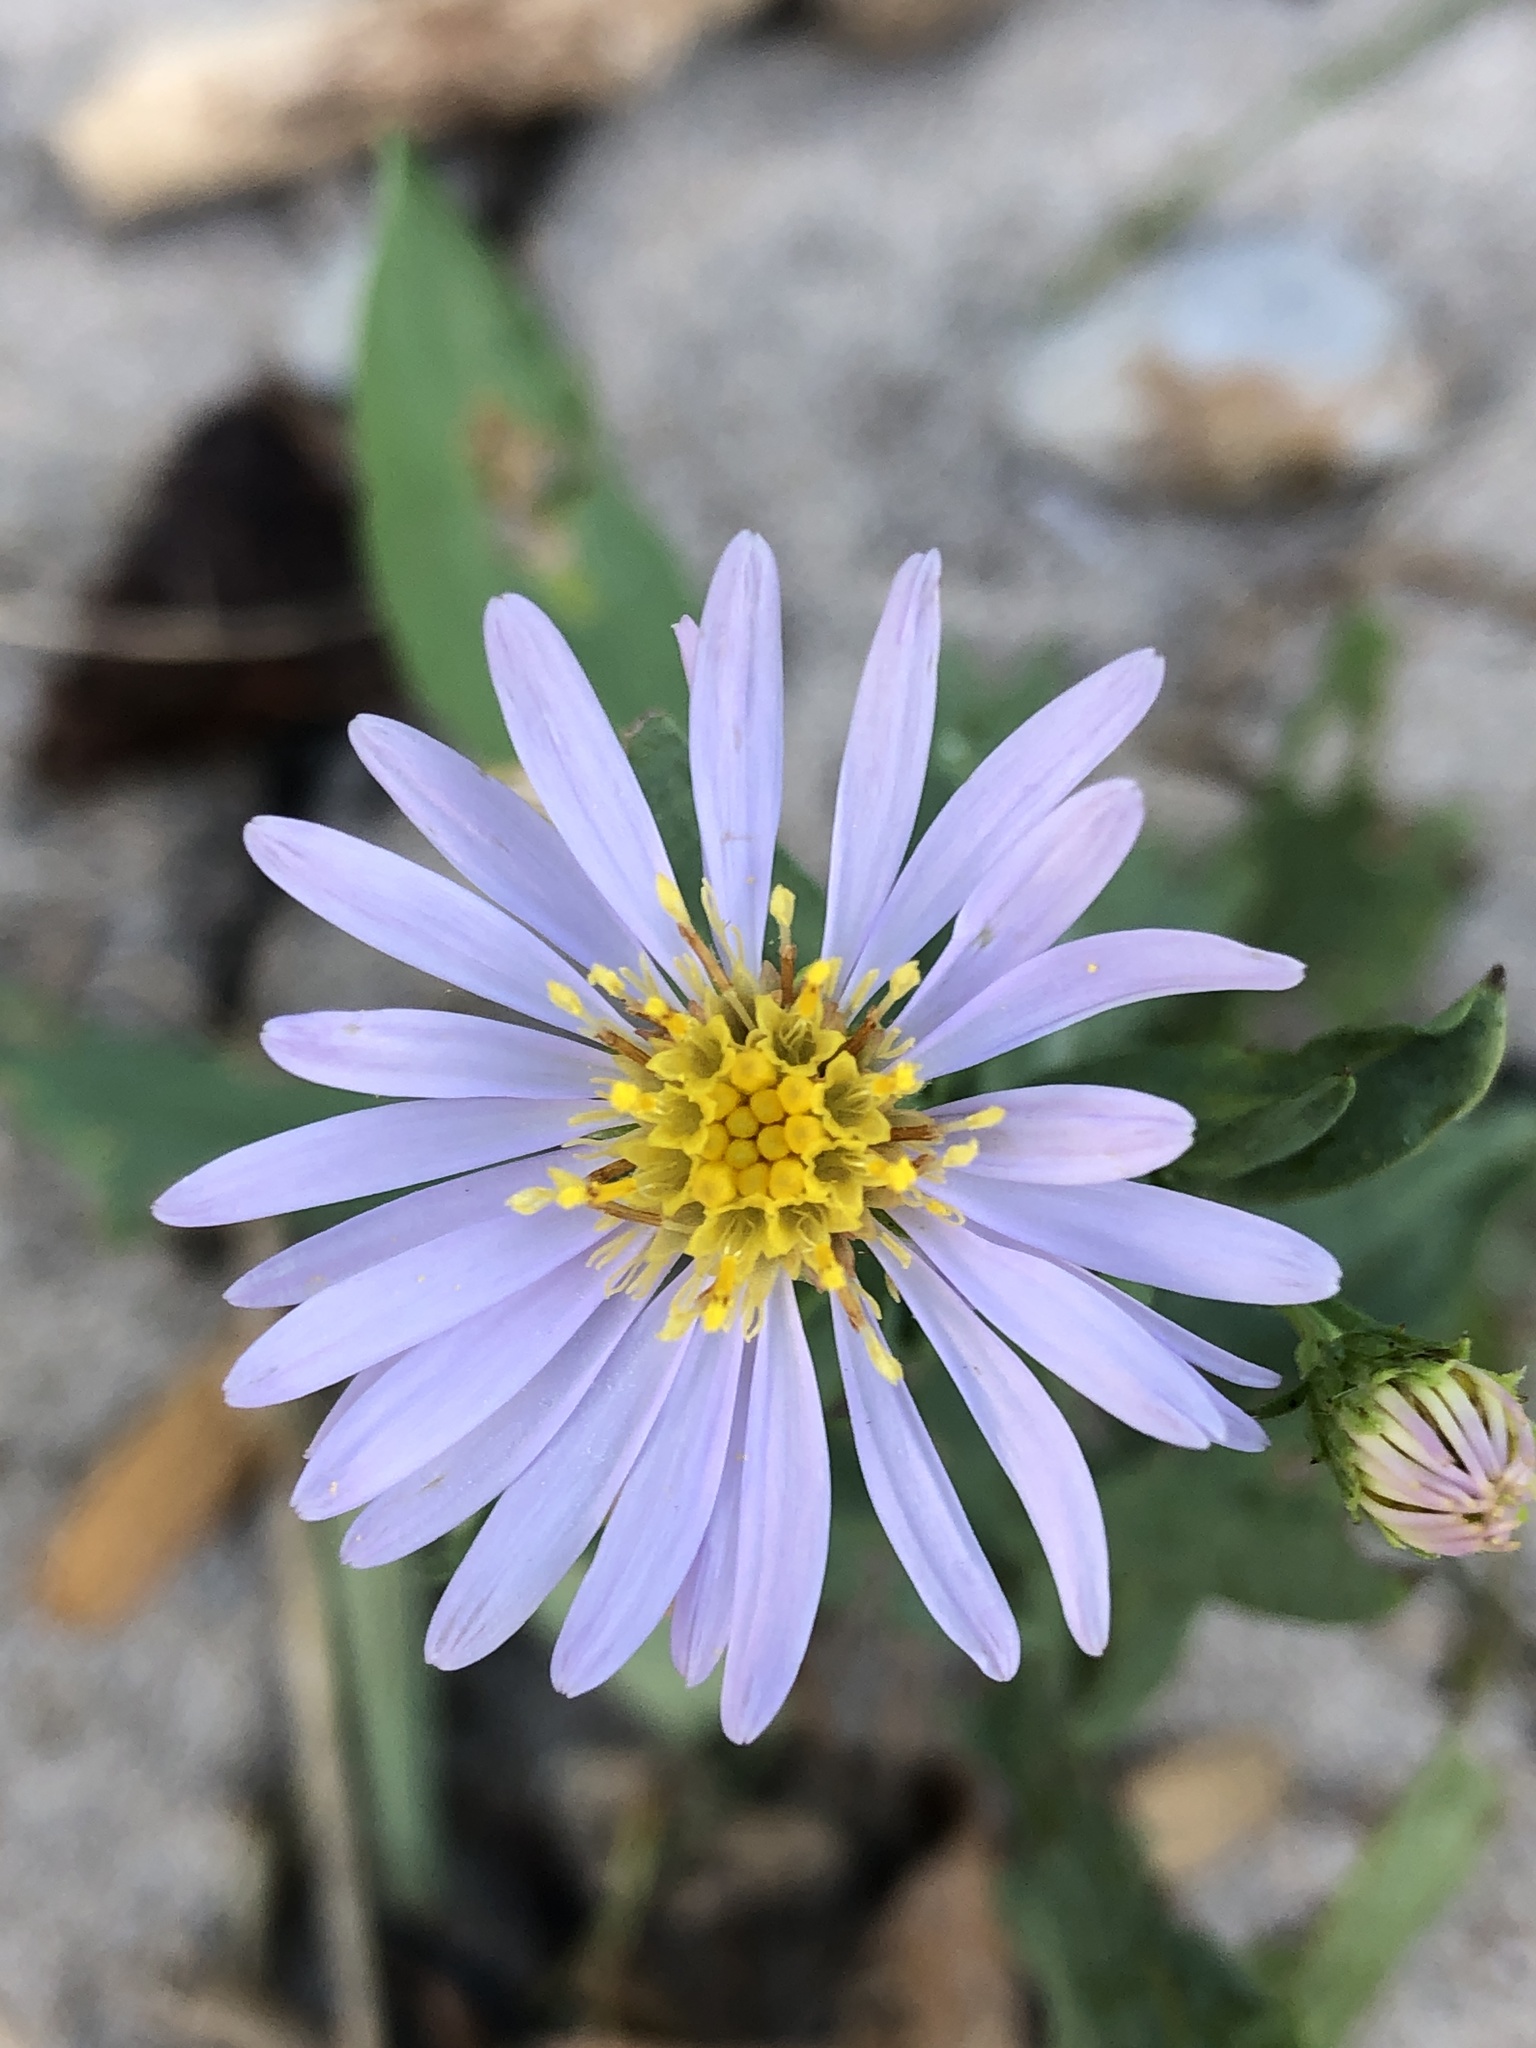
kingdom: Plantae
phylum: Tracheophyta
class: Magnoliopsida
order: Asterales
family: Asteraceae
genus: Symphyotrichum
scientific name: Symphyotrichum laeve
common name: Glaucous aster
